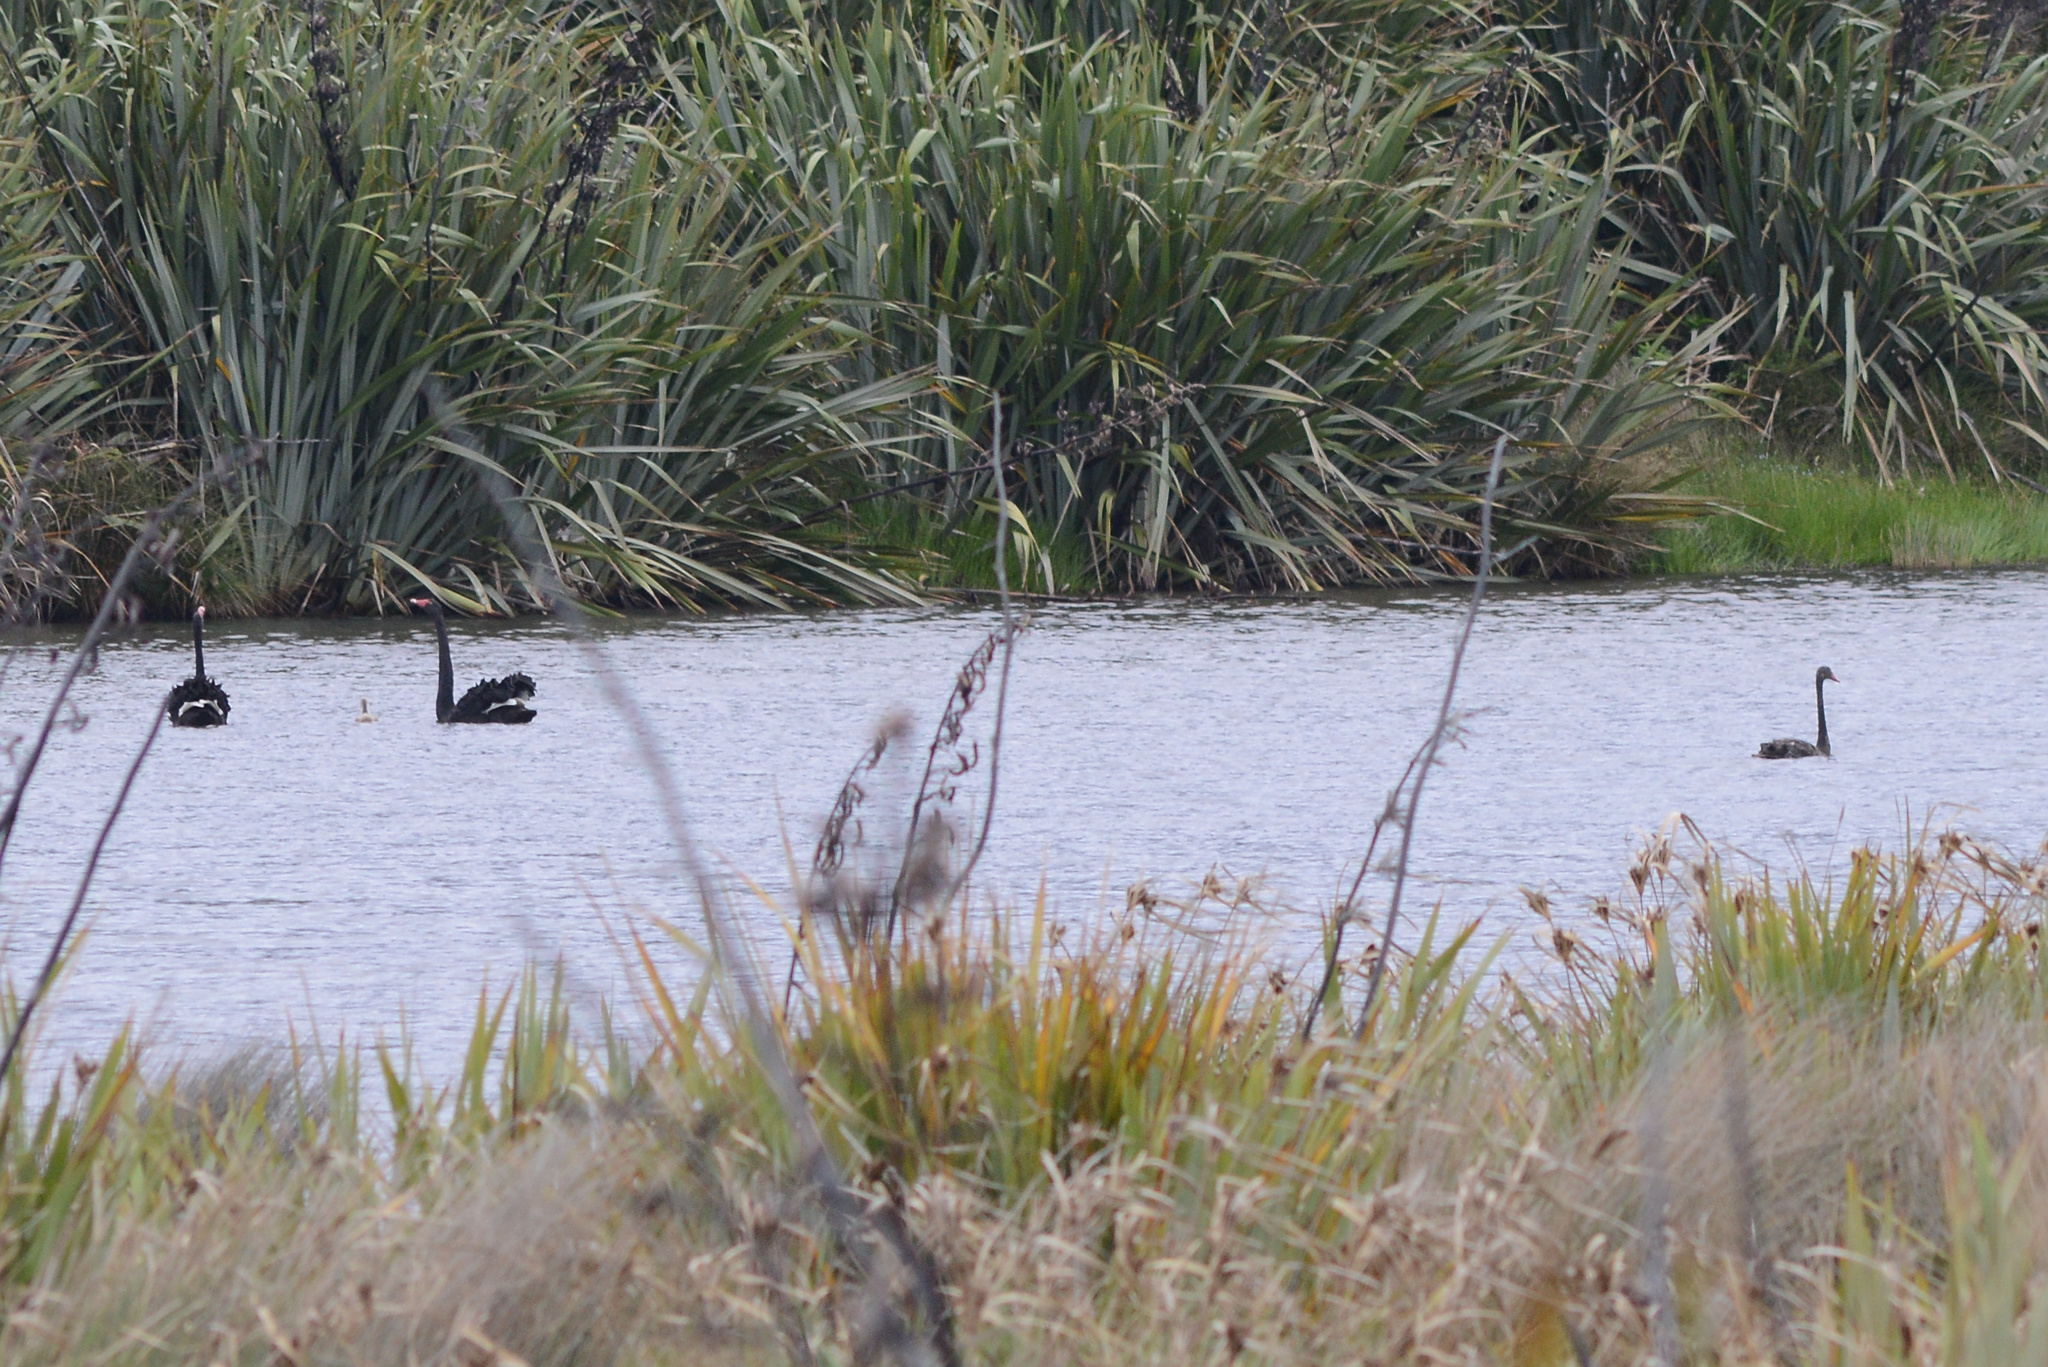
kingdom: Animalia
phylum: Chordata
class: Aves
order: Anseriformes
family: Anatidae
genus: Cygnus
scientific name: Cygnus atratus
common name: Black swan
